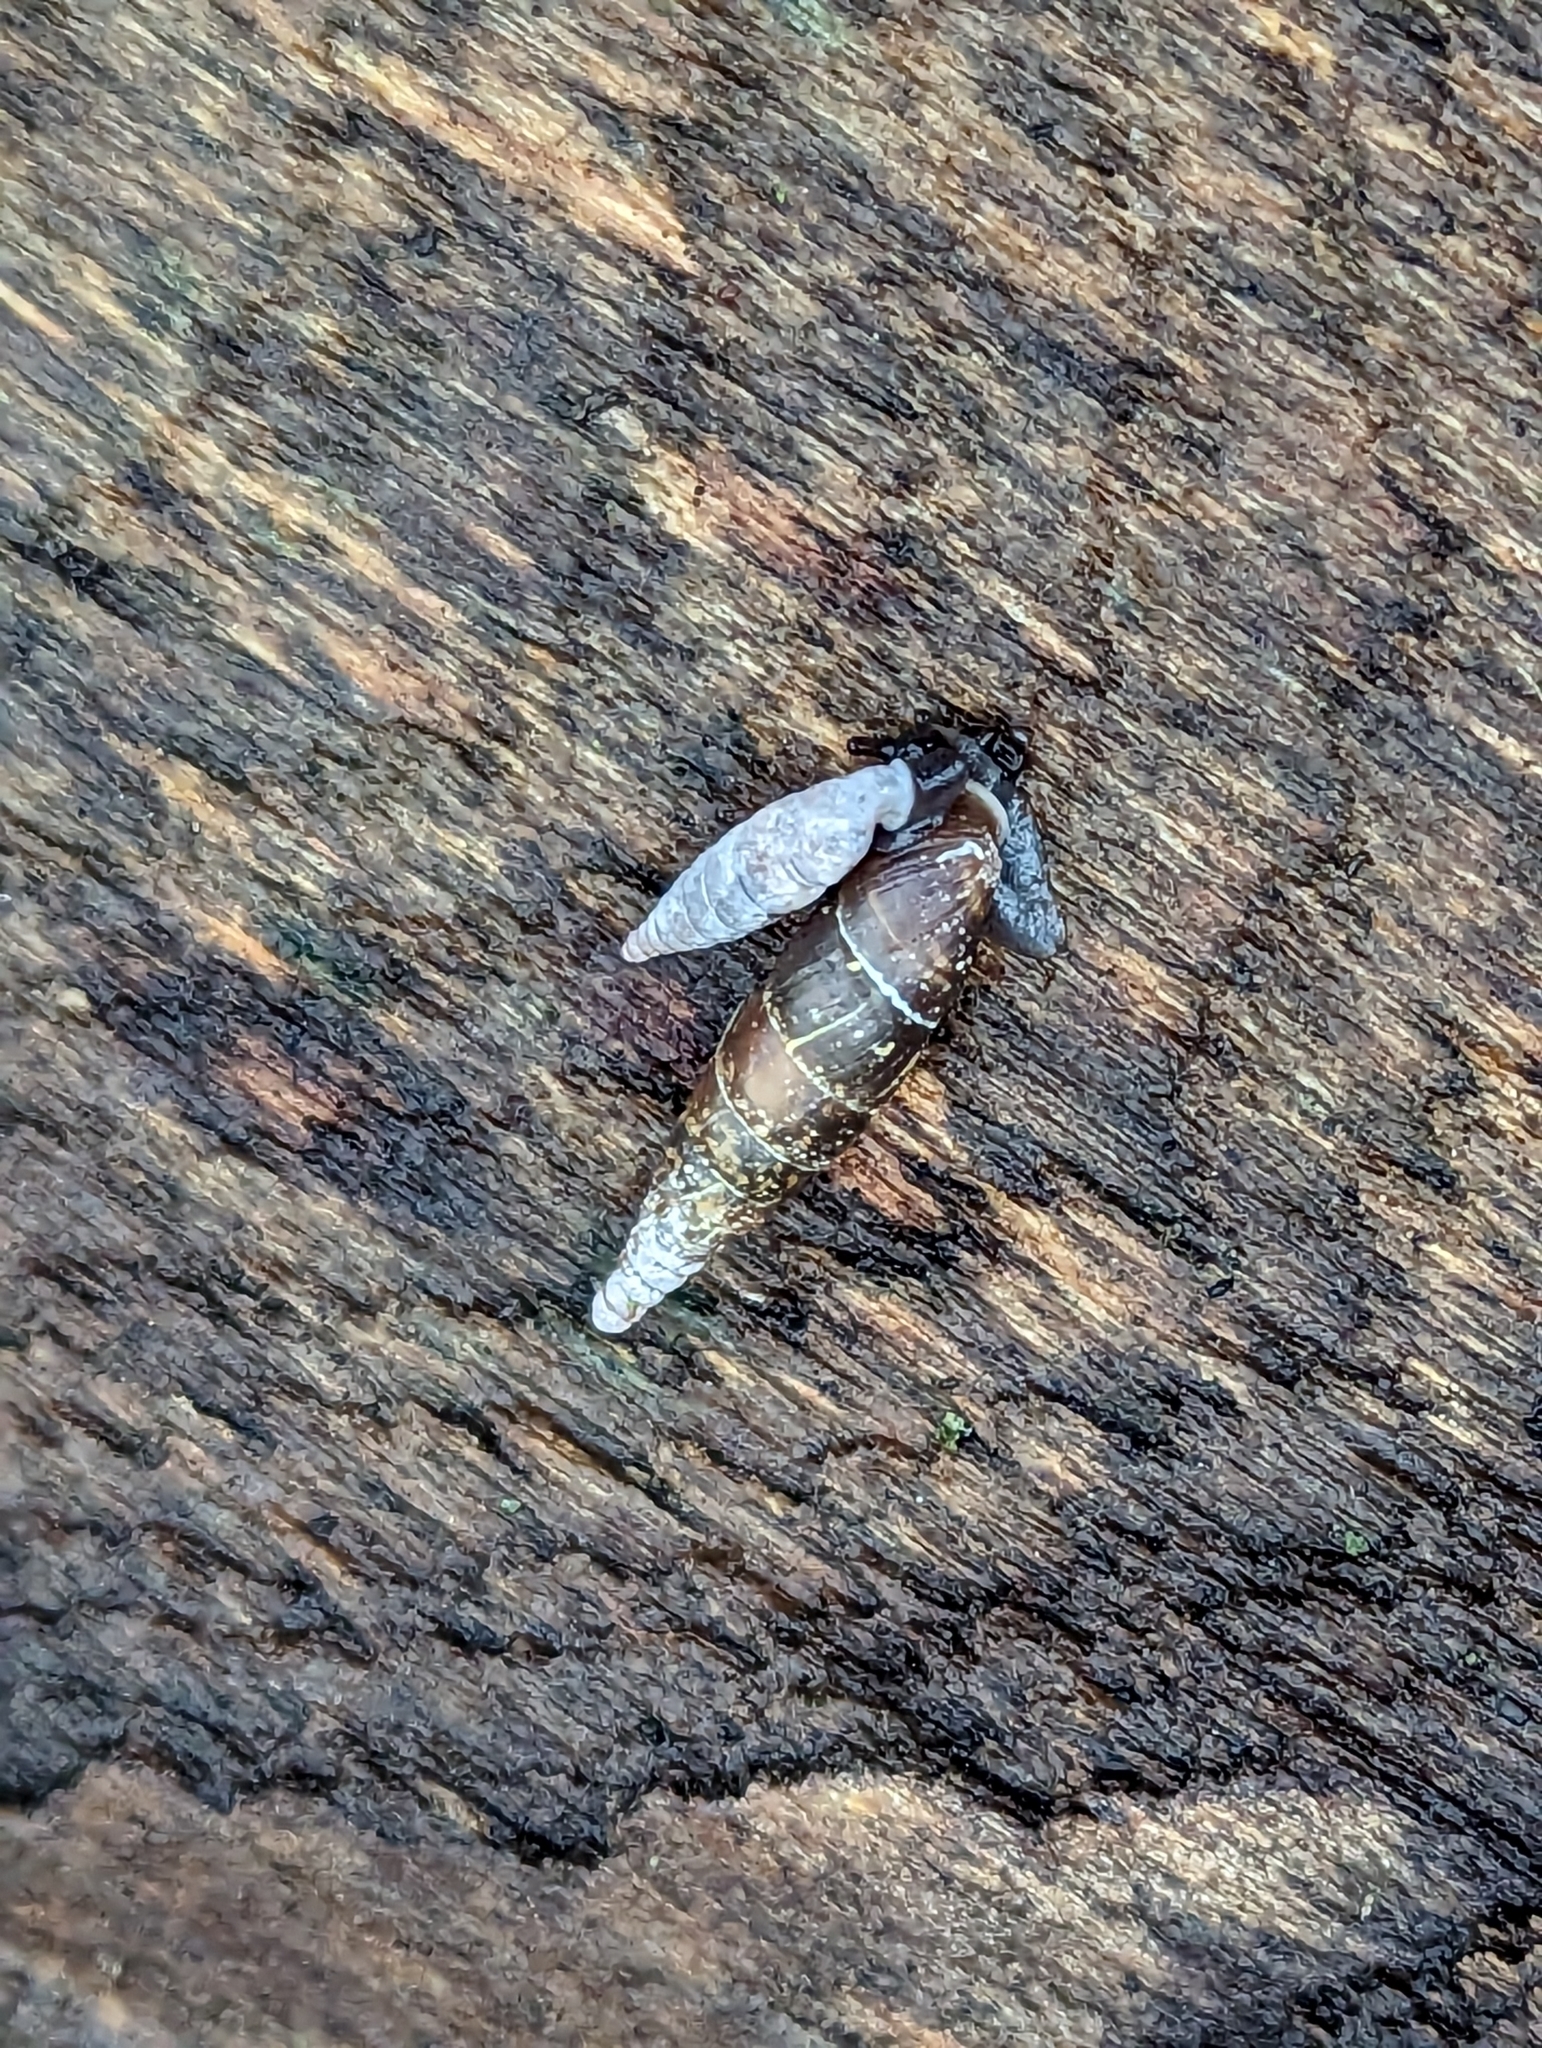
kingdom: Animalia
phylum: Mollusca
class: Gastropoda
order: Stylommatophora
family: Clausiliidae
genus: Clausilia
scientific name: Clausilia bidentata
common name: Two-toothed door snail
